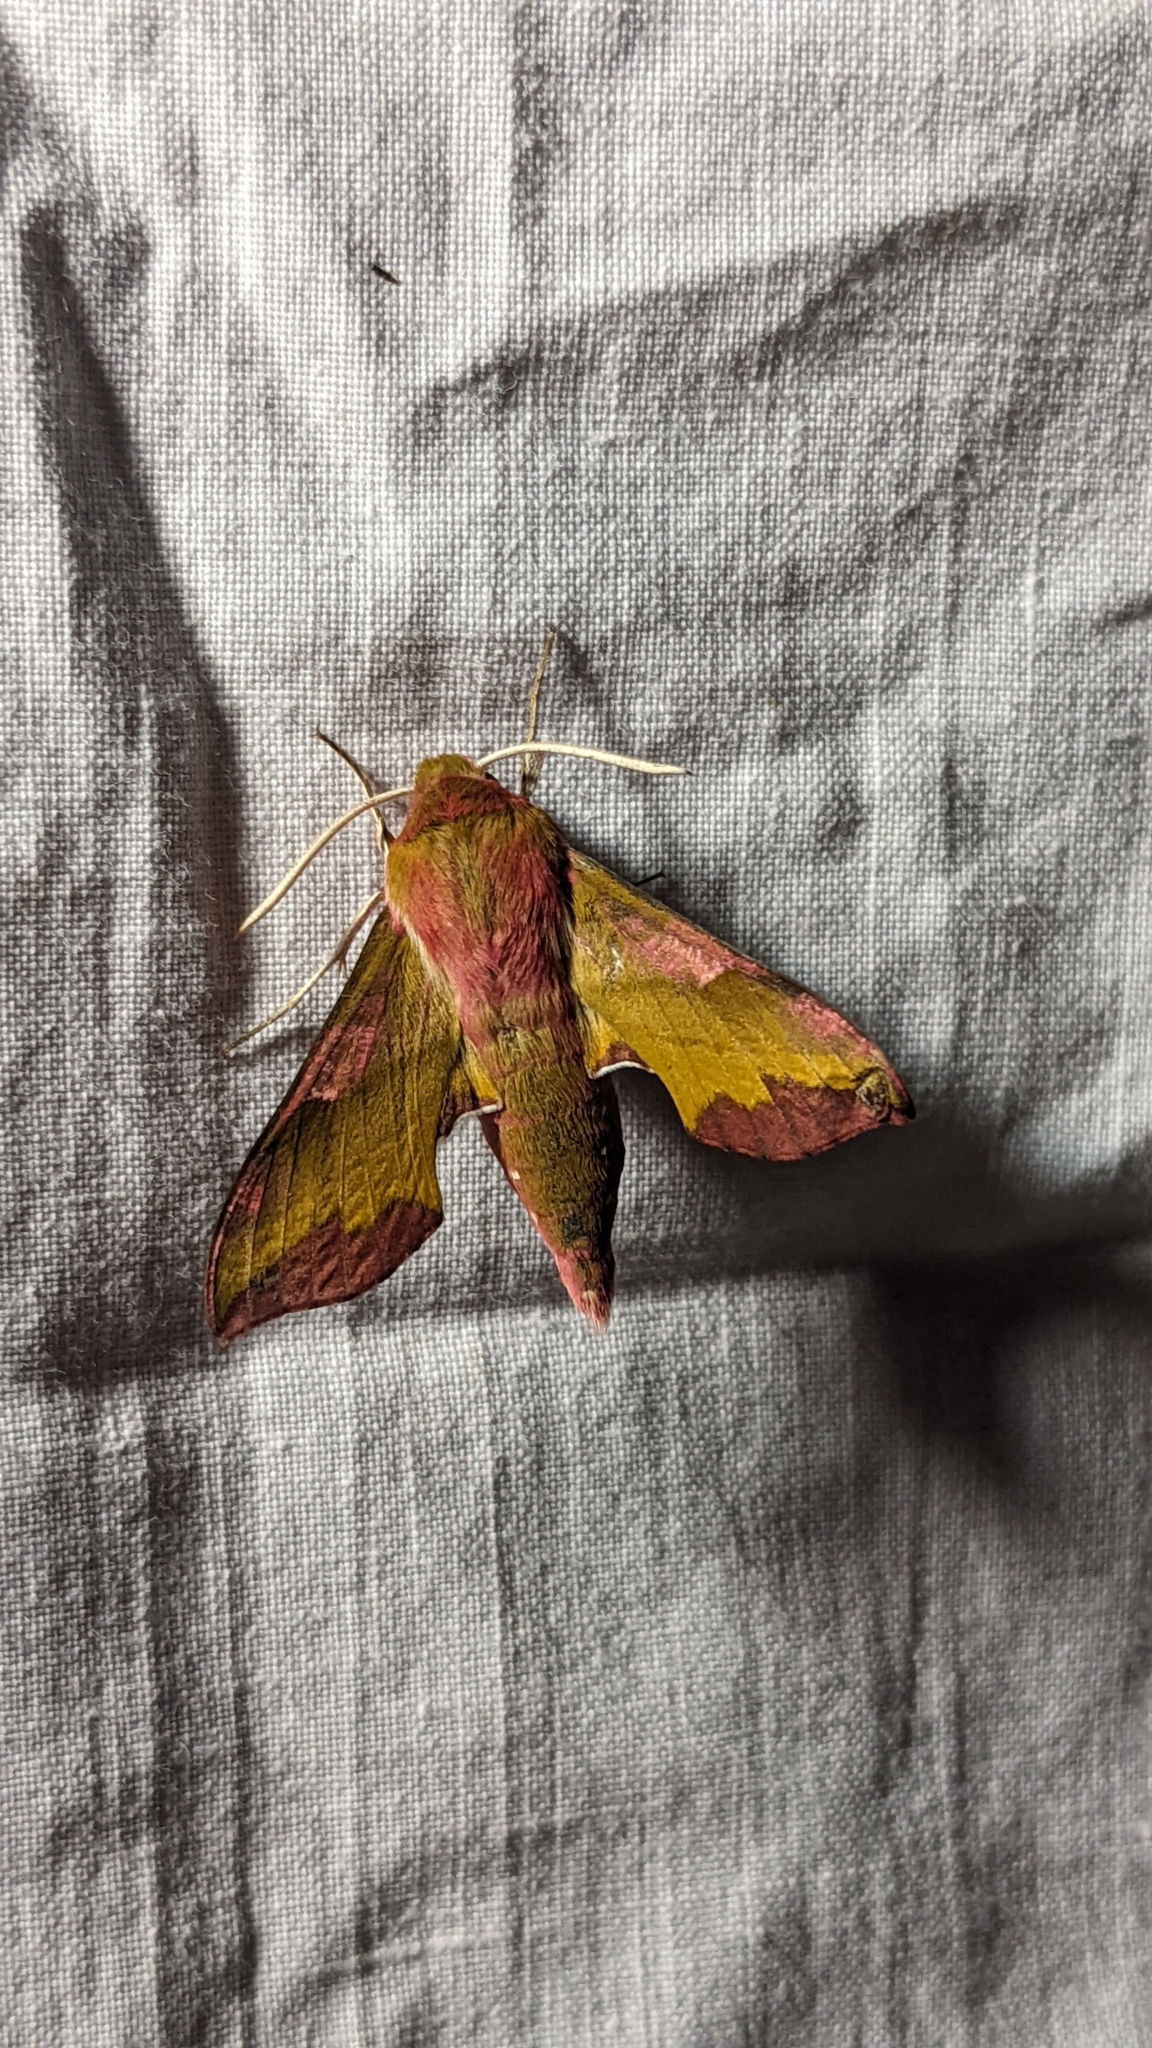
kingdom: Animalia
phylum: Arthropoda
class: Insecta
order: Lepidoptera
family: Sphingidae
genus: Deilephila
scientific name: Deilephila porcellus
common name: Small elephant hawk-moth
